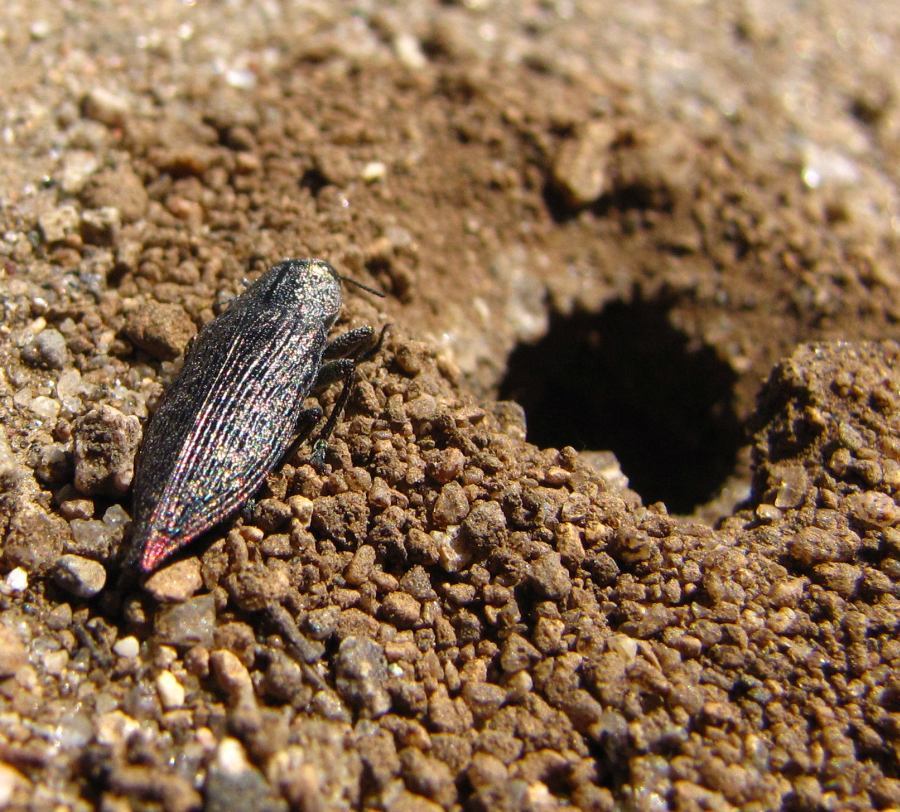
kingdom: Animalia
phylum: Arthropoda
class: Insecta
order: Coleoptera
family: Buprestidae
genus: Poecilonota
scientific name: Poecilonota cyanipes
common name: Eastern poplar buprestid beetle
